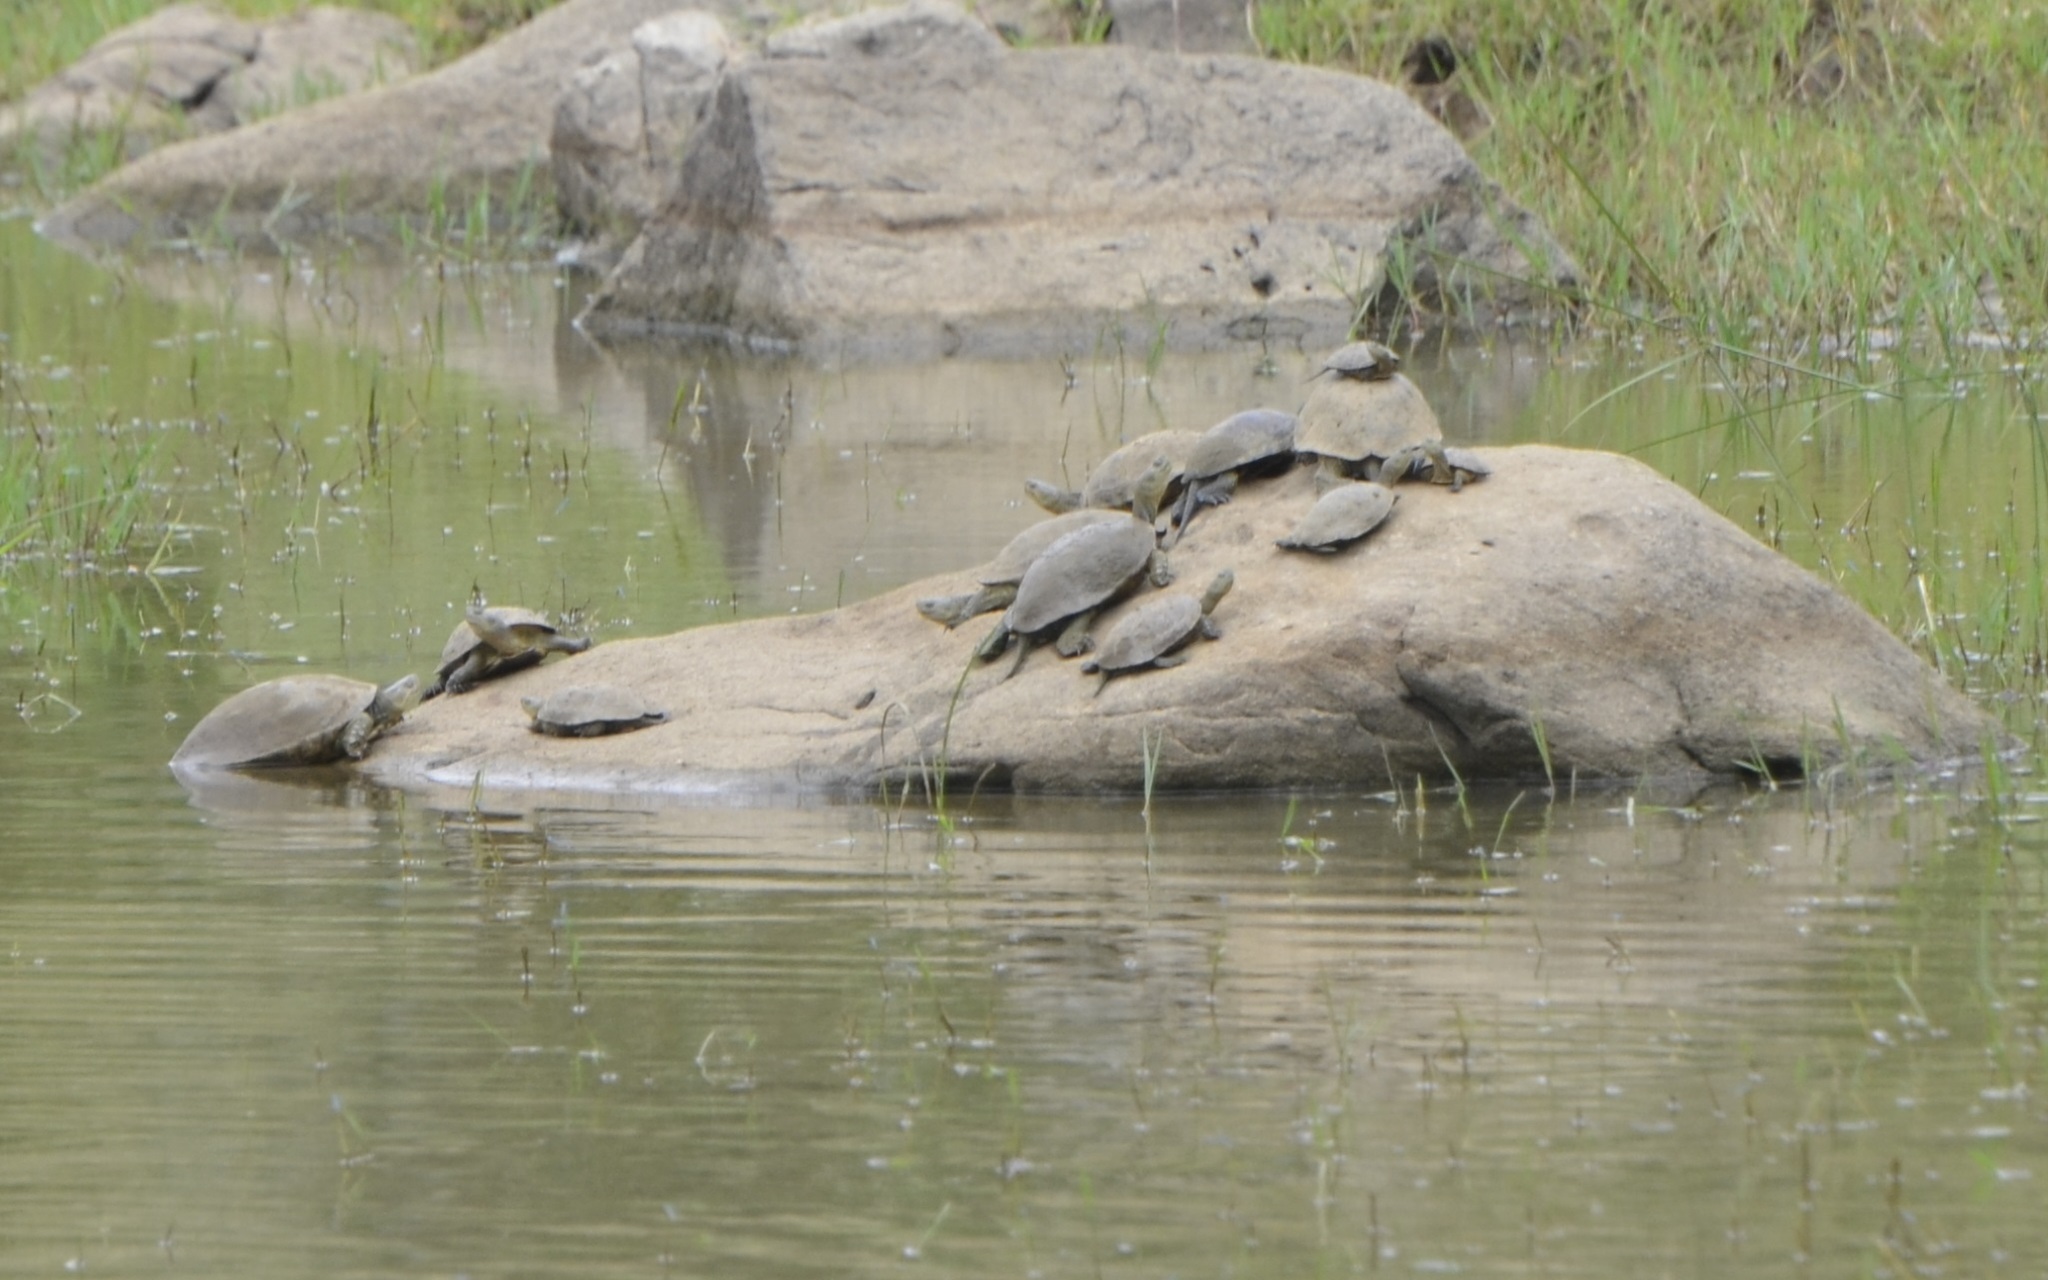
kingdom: Animalia
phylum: Chordata
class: Testudines
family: Geoemydidae
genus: Mauremys
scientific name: Mauremys leprosa
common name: Mediterranean pond turtle
